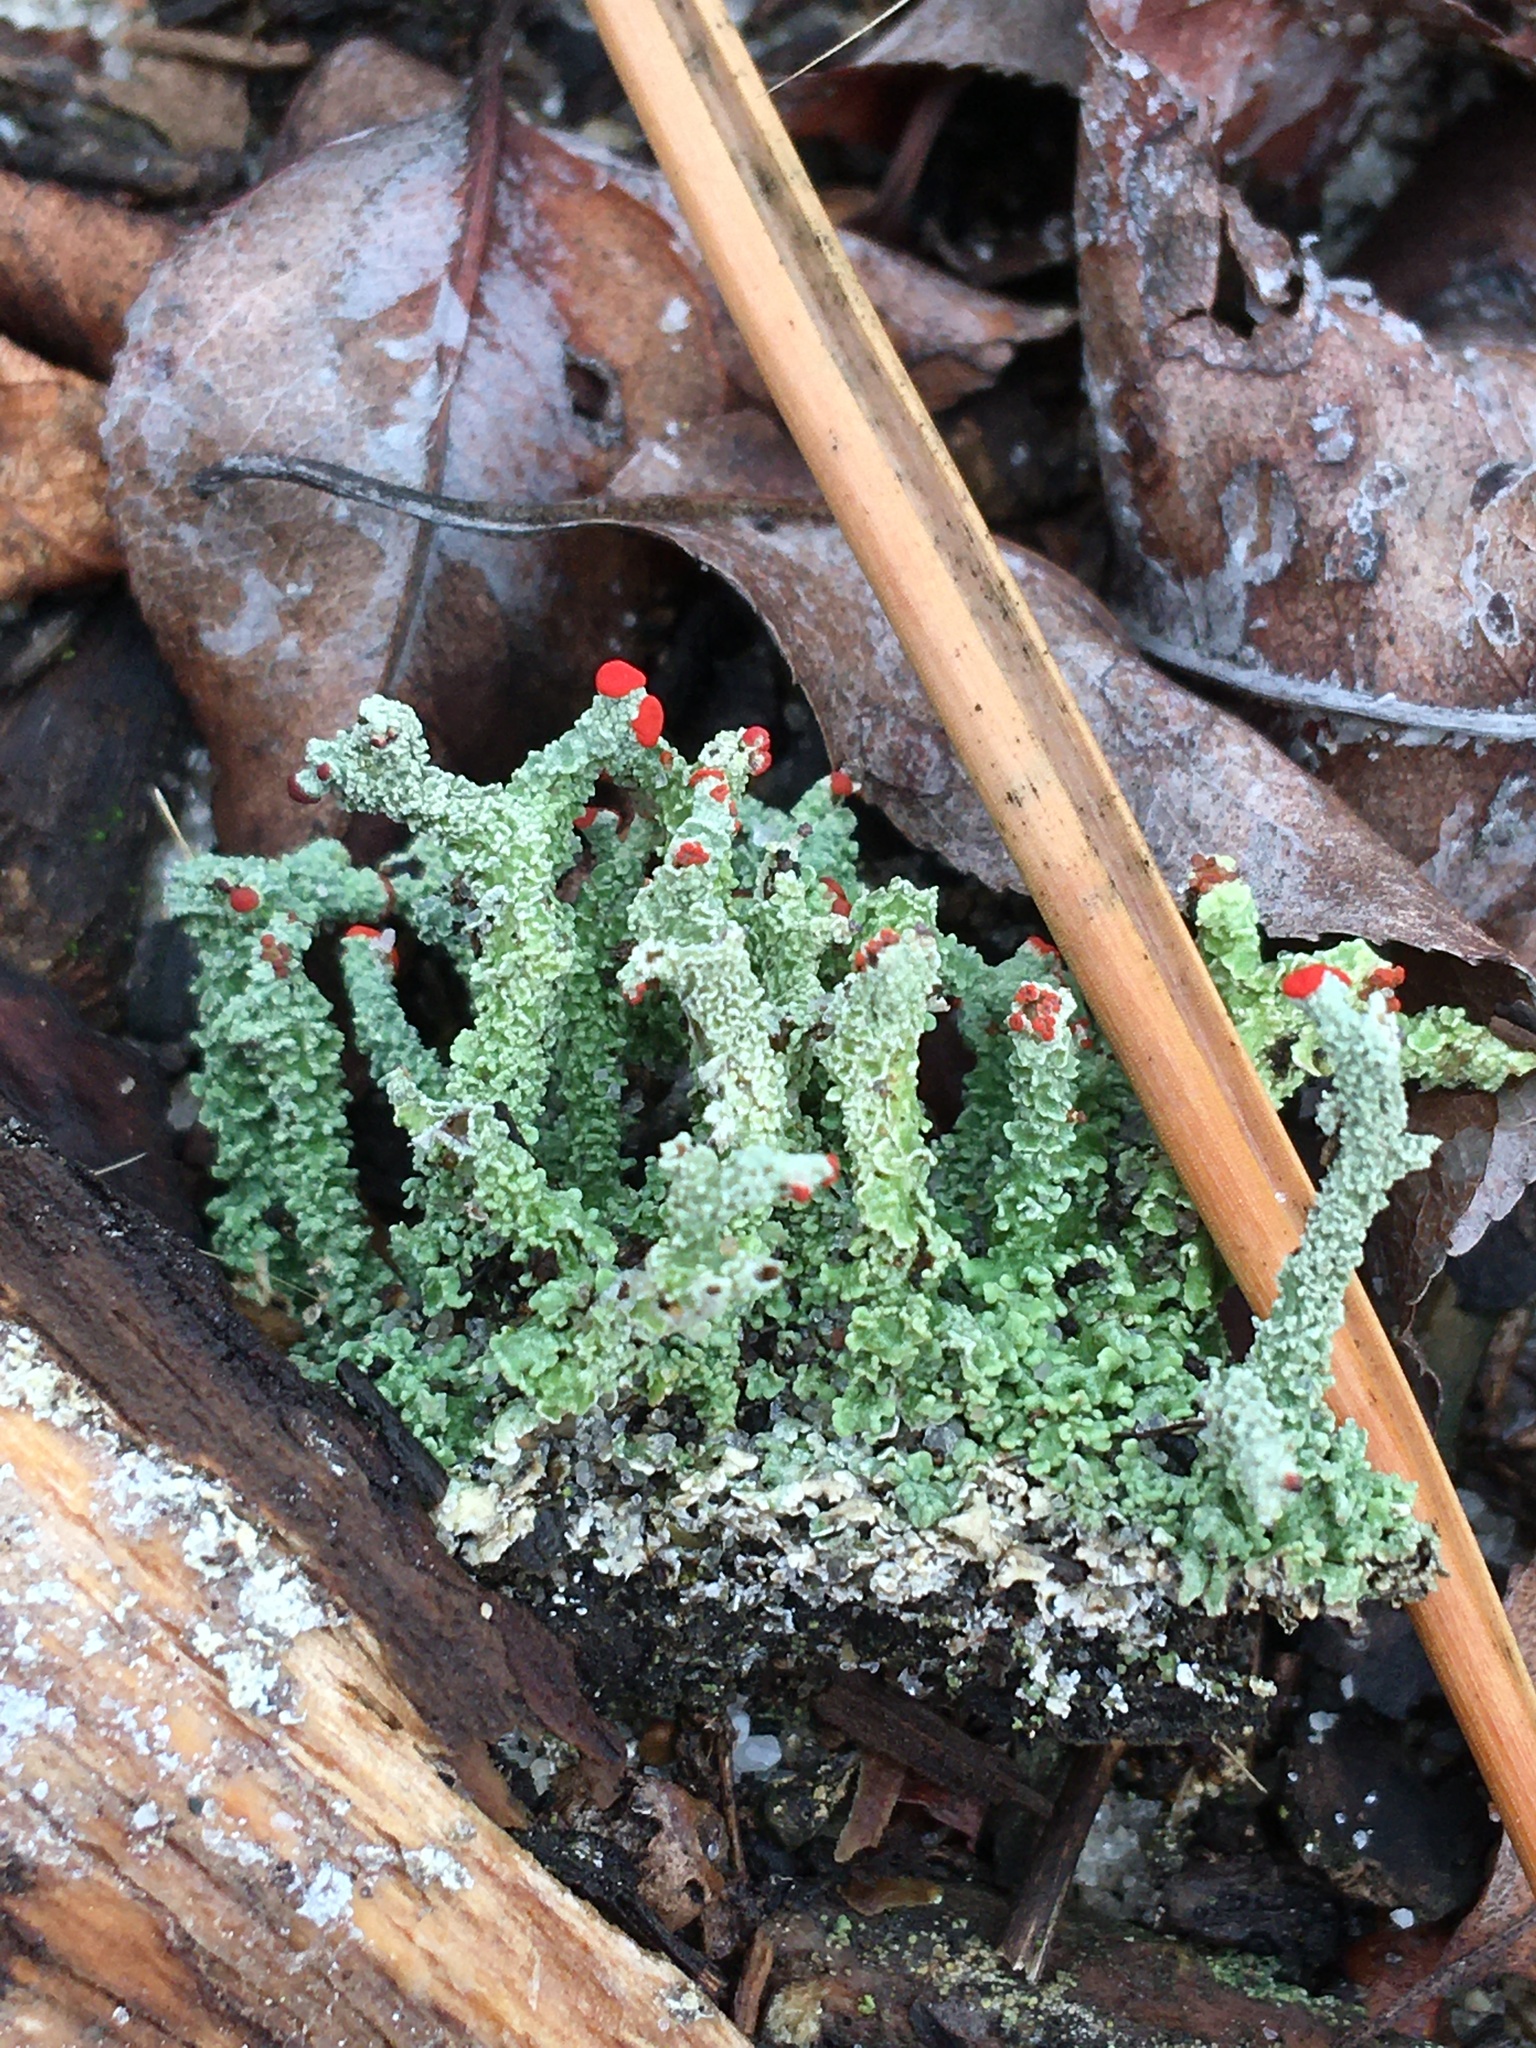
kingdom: Fungi
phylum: Ascomycota
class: Lecanoromycetes
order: Lecanorales
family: Cladoniaceae
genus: Cladonia
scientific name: Cladonia cristatella
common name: British soldier lichen
